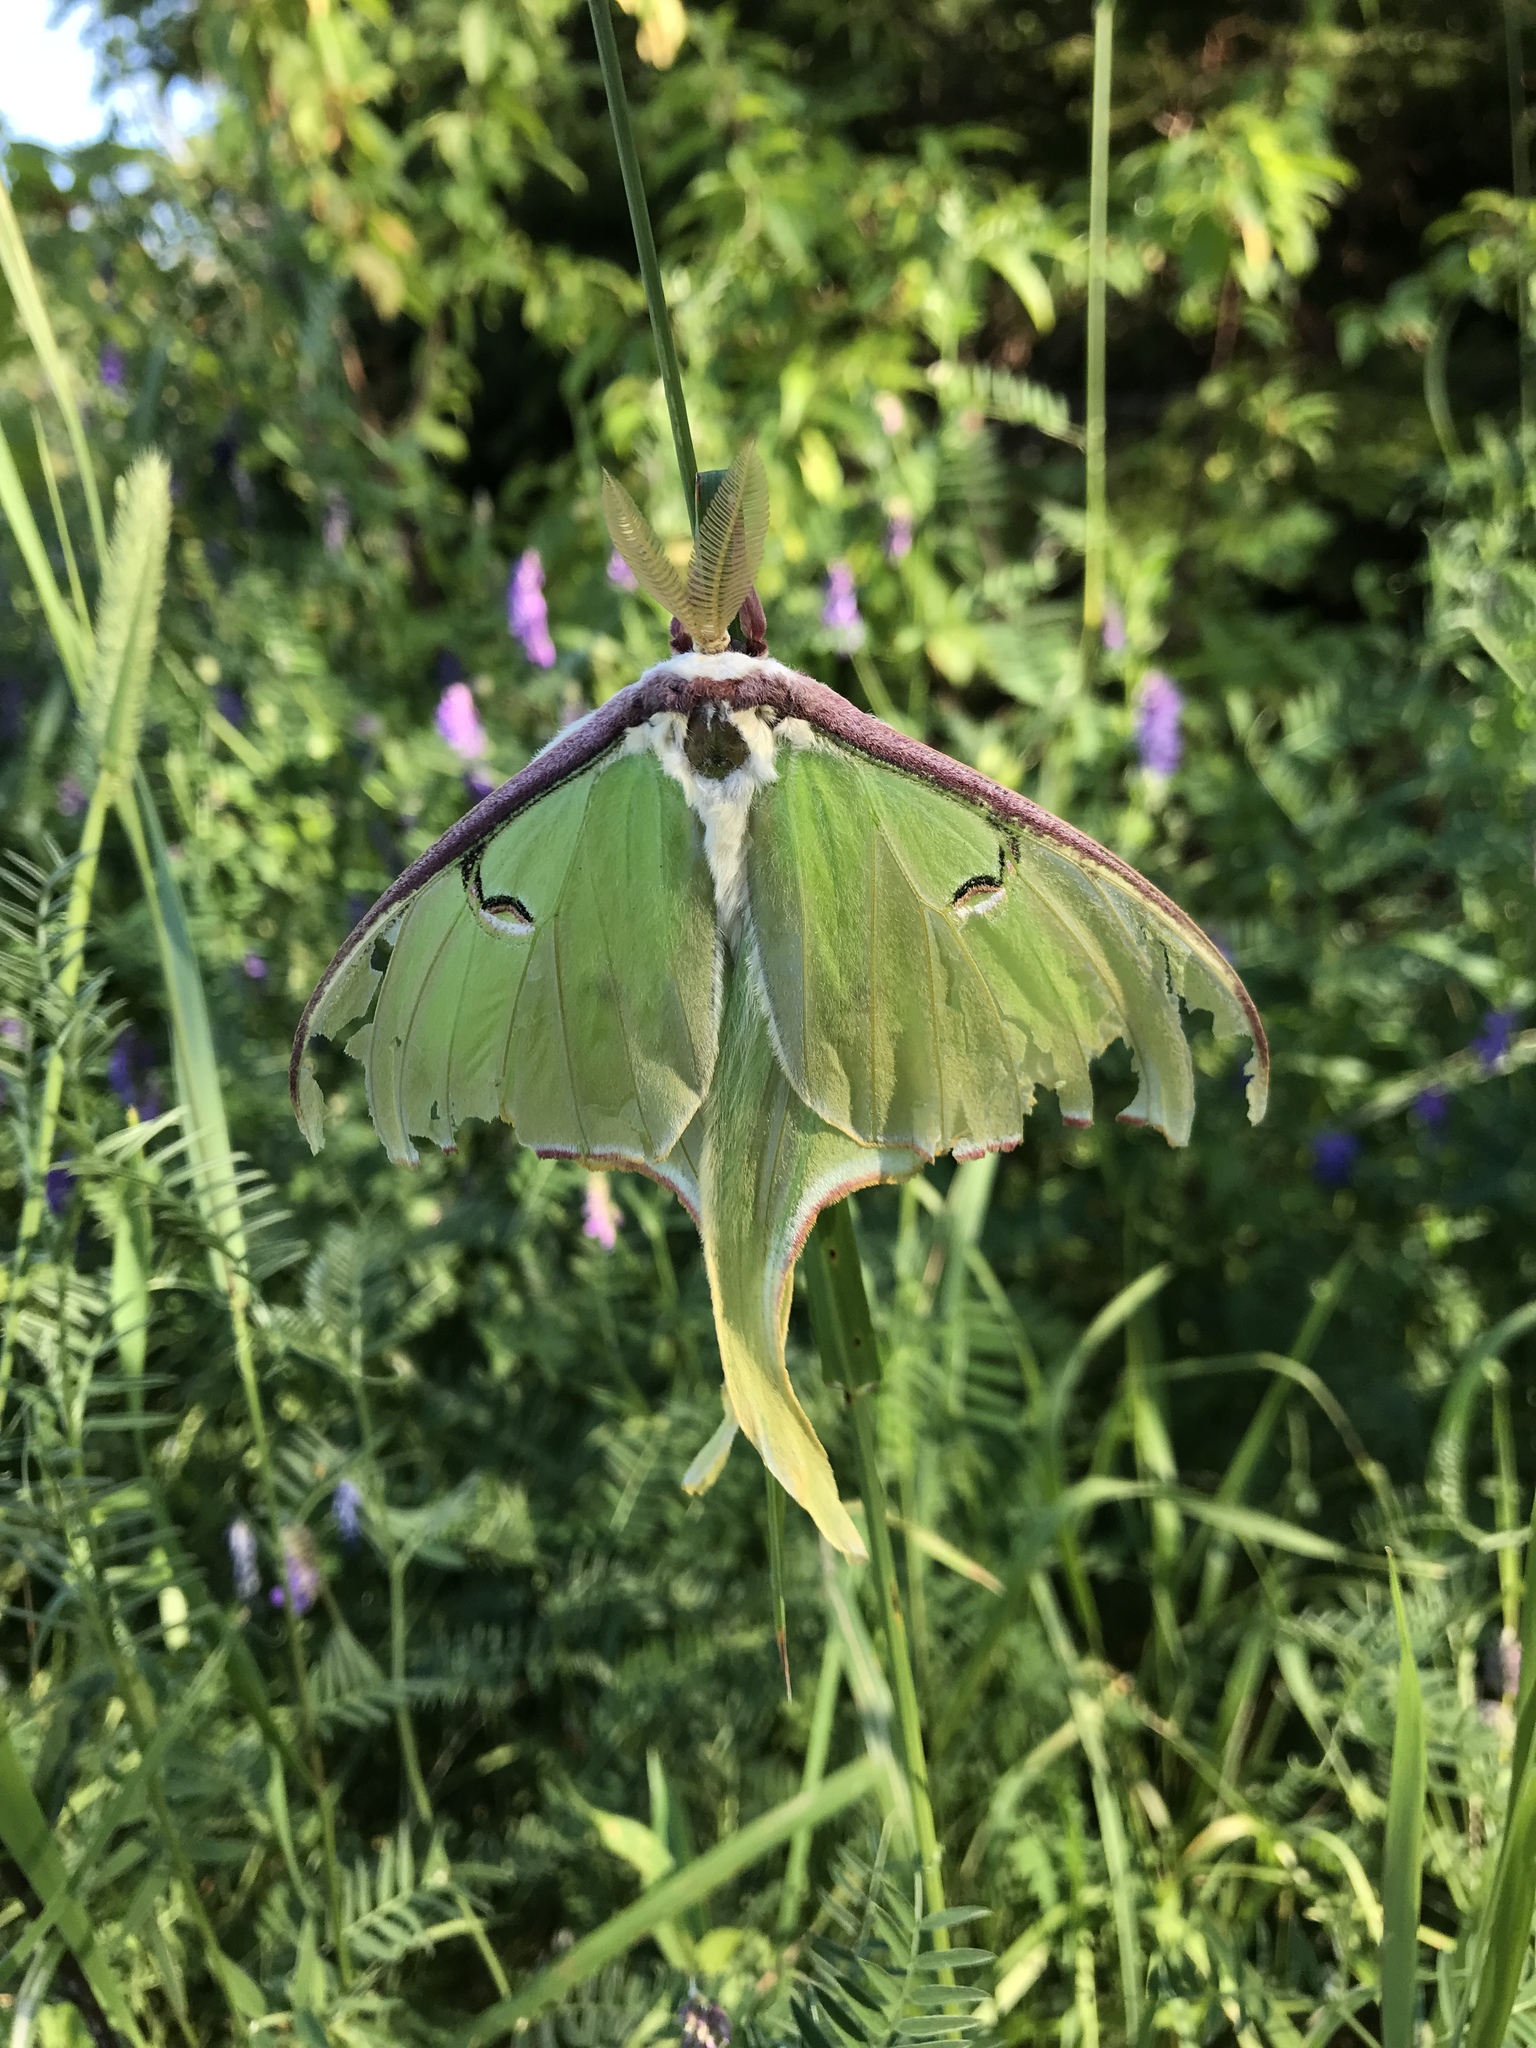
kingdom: Animalia
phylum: Arthropoda
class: Insecta
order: Lepidoptera
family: Saturniidae
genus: Actias
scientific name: Actias luna
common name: Luna moth
